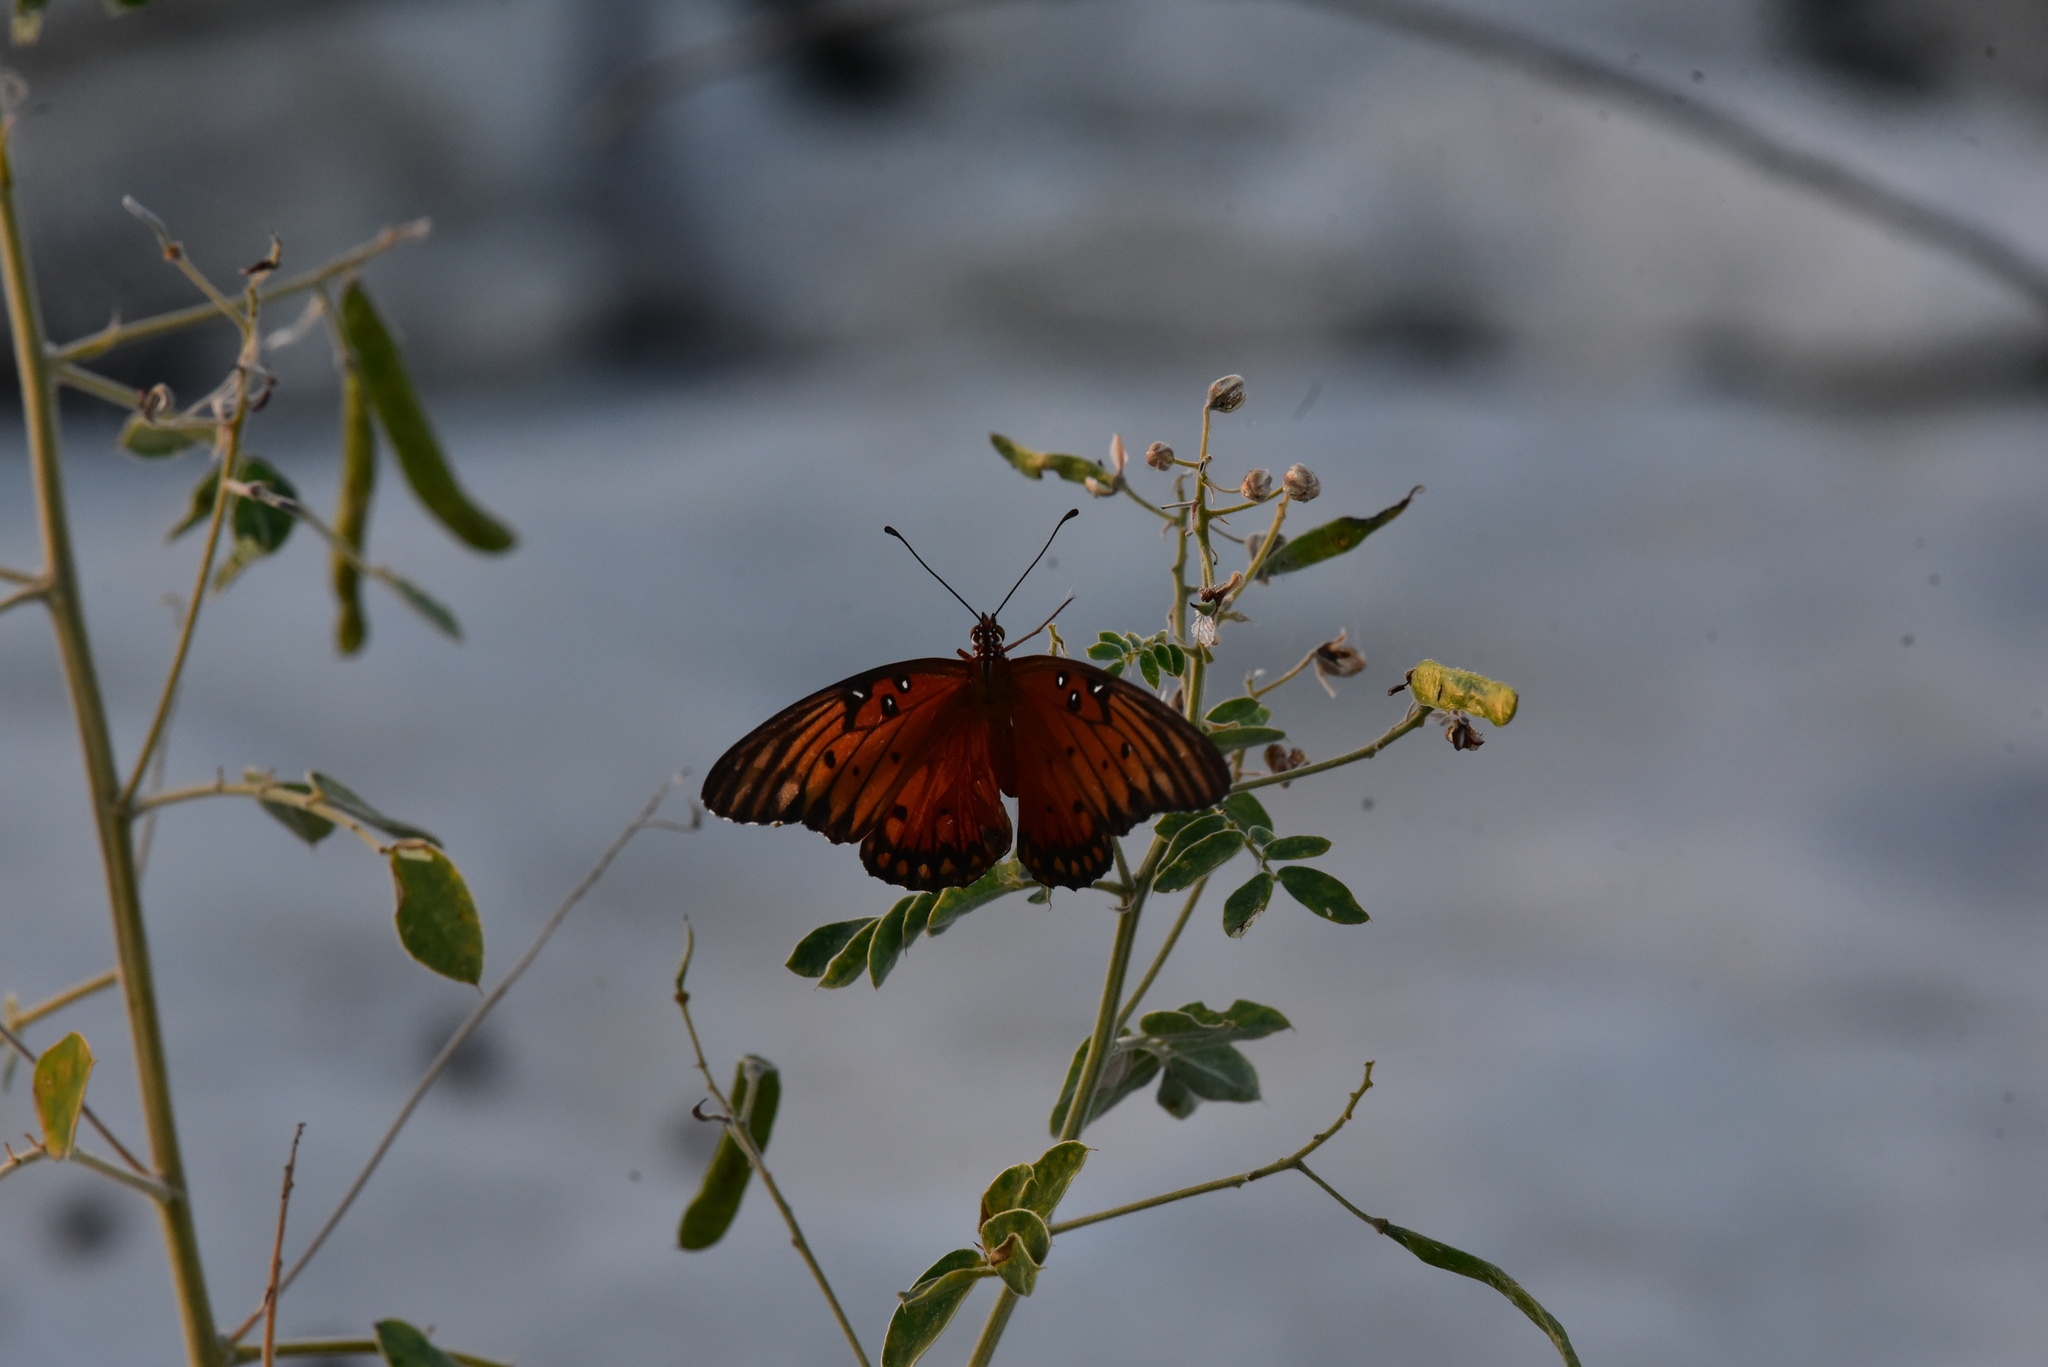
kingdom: Animalia
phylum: Arthropoda
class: Insecta
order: Lepidoptera
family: Nymphalidae
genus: Dione
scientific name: Dione vanillae
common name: Gulf fritillary
